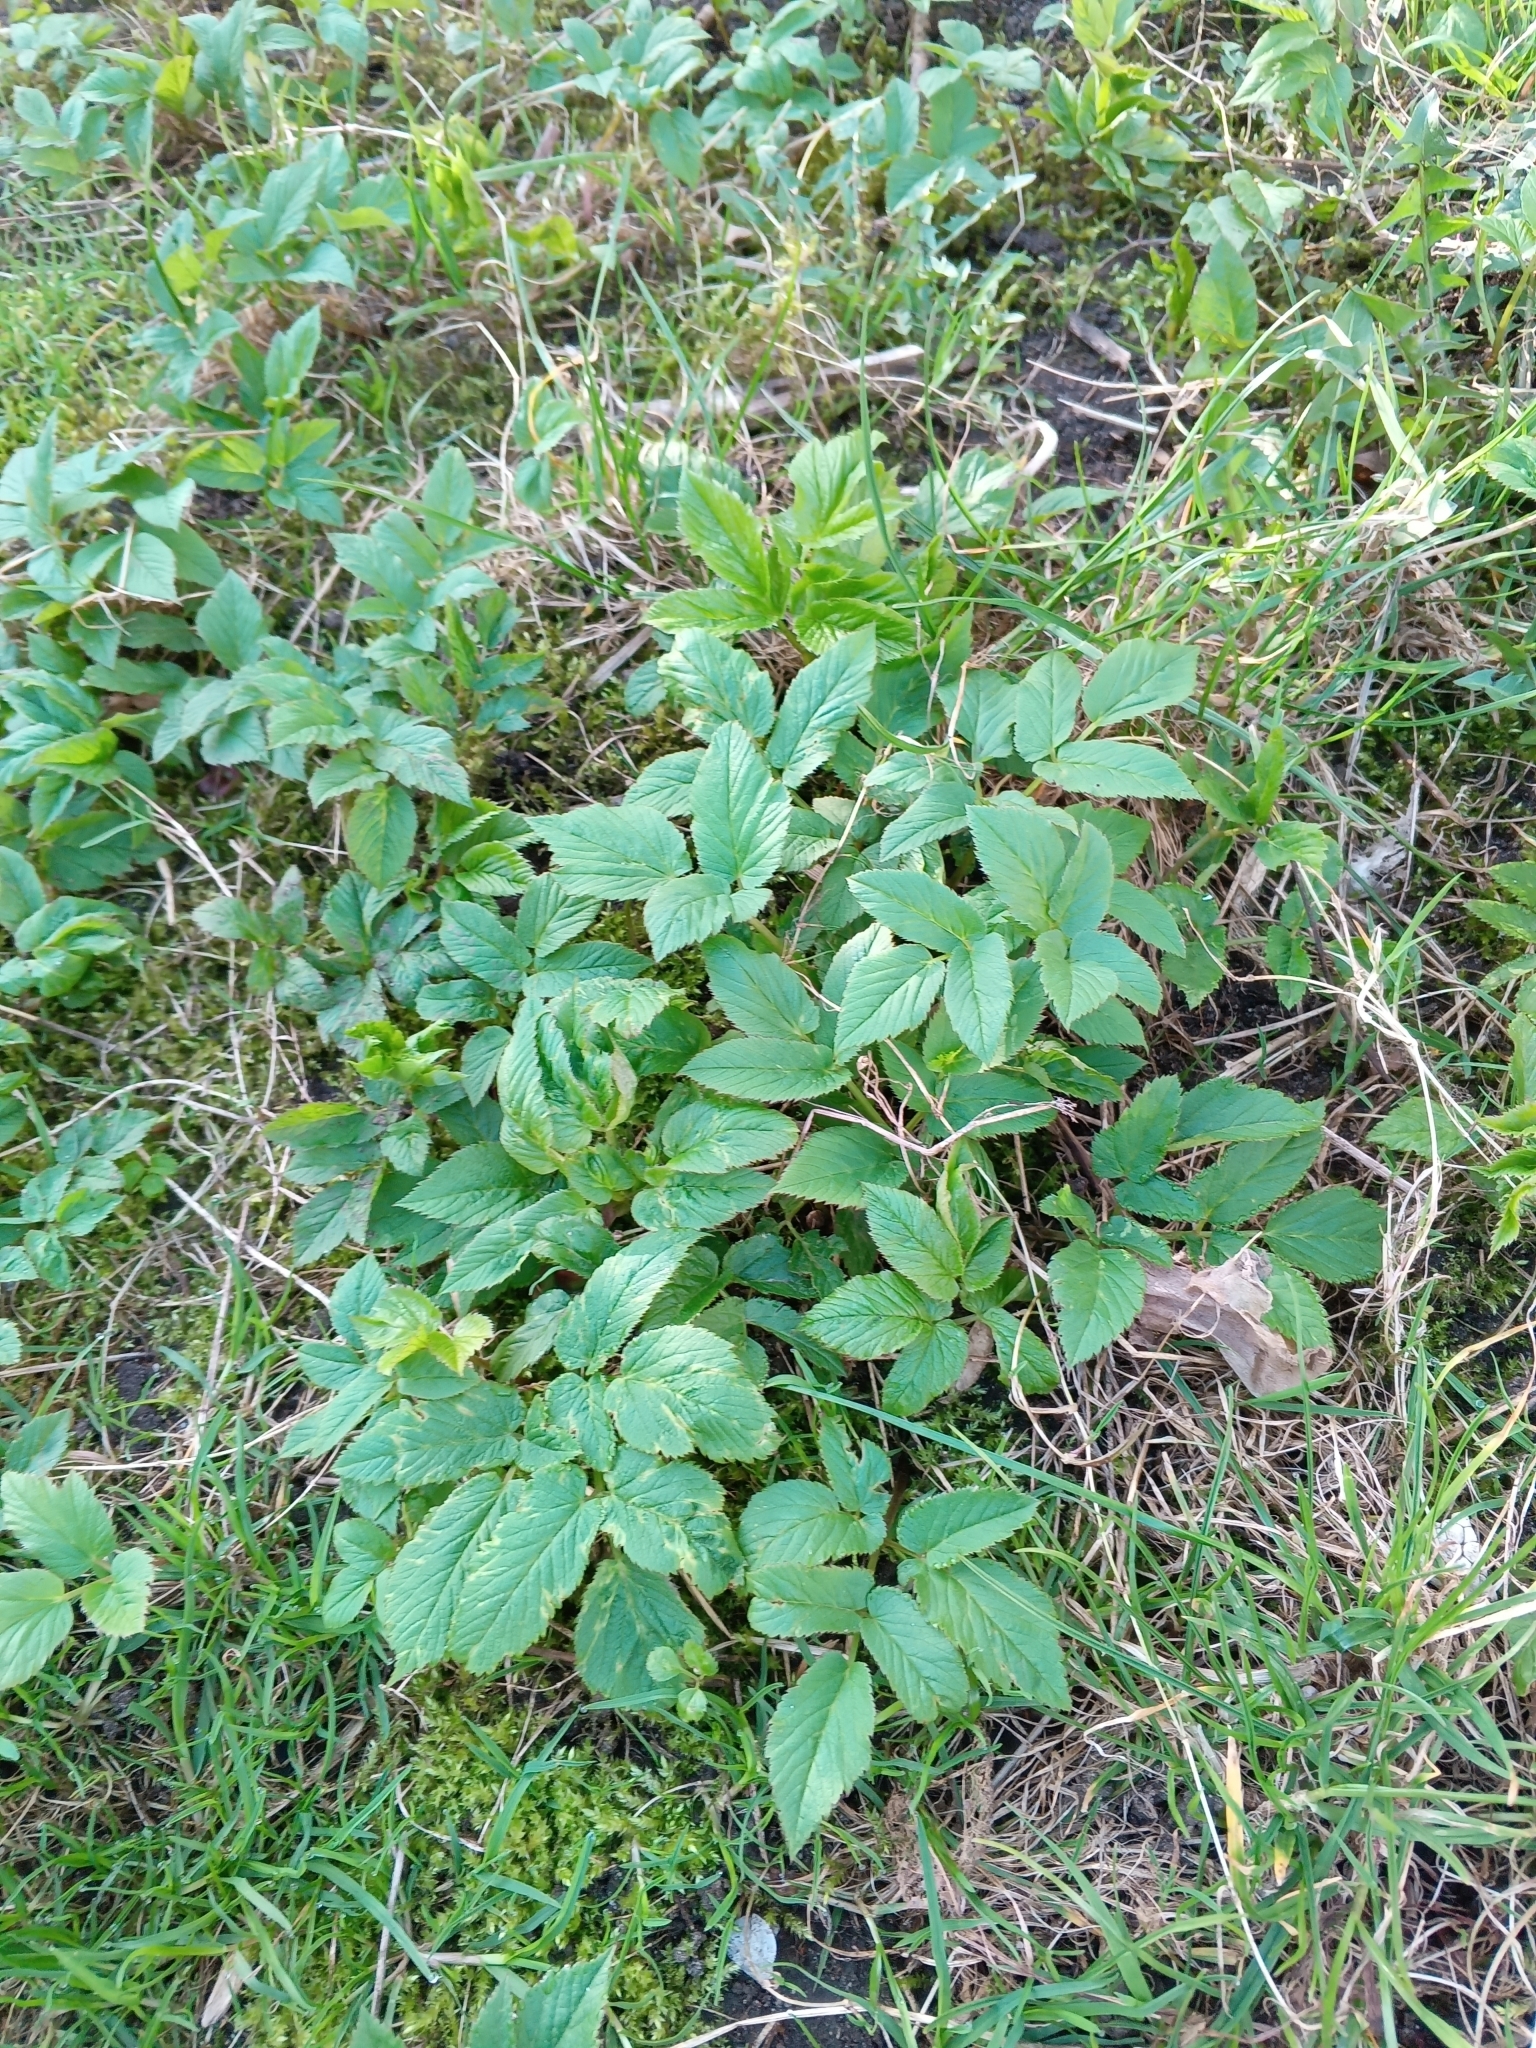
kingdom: Plantae
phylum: Tracheophyta
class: Magnoliopsida
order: Apiales
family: Apiaceae
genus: Aegopodium
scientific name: Aegopodium podagraria
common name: Ground-elder
